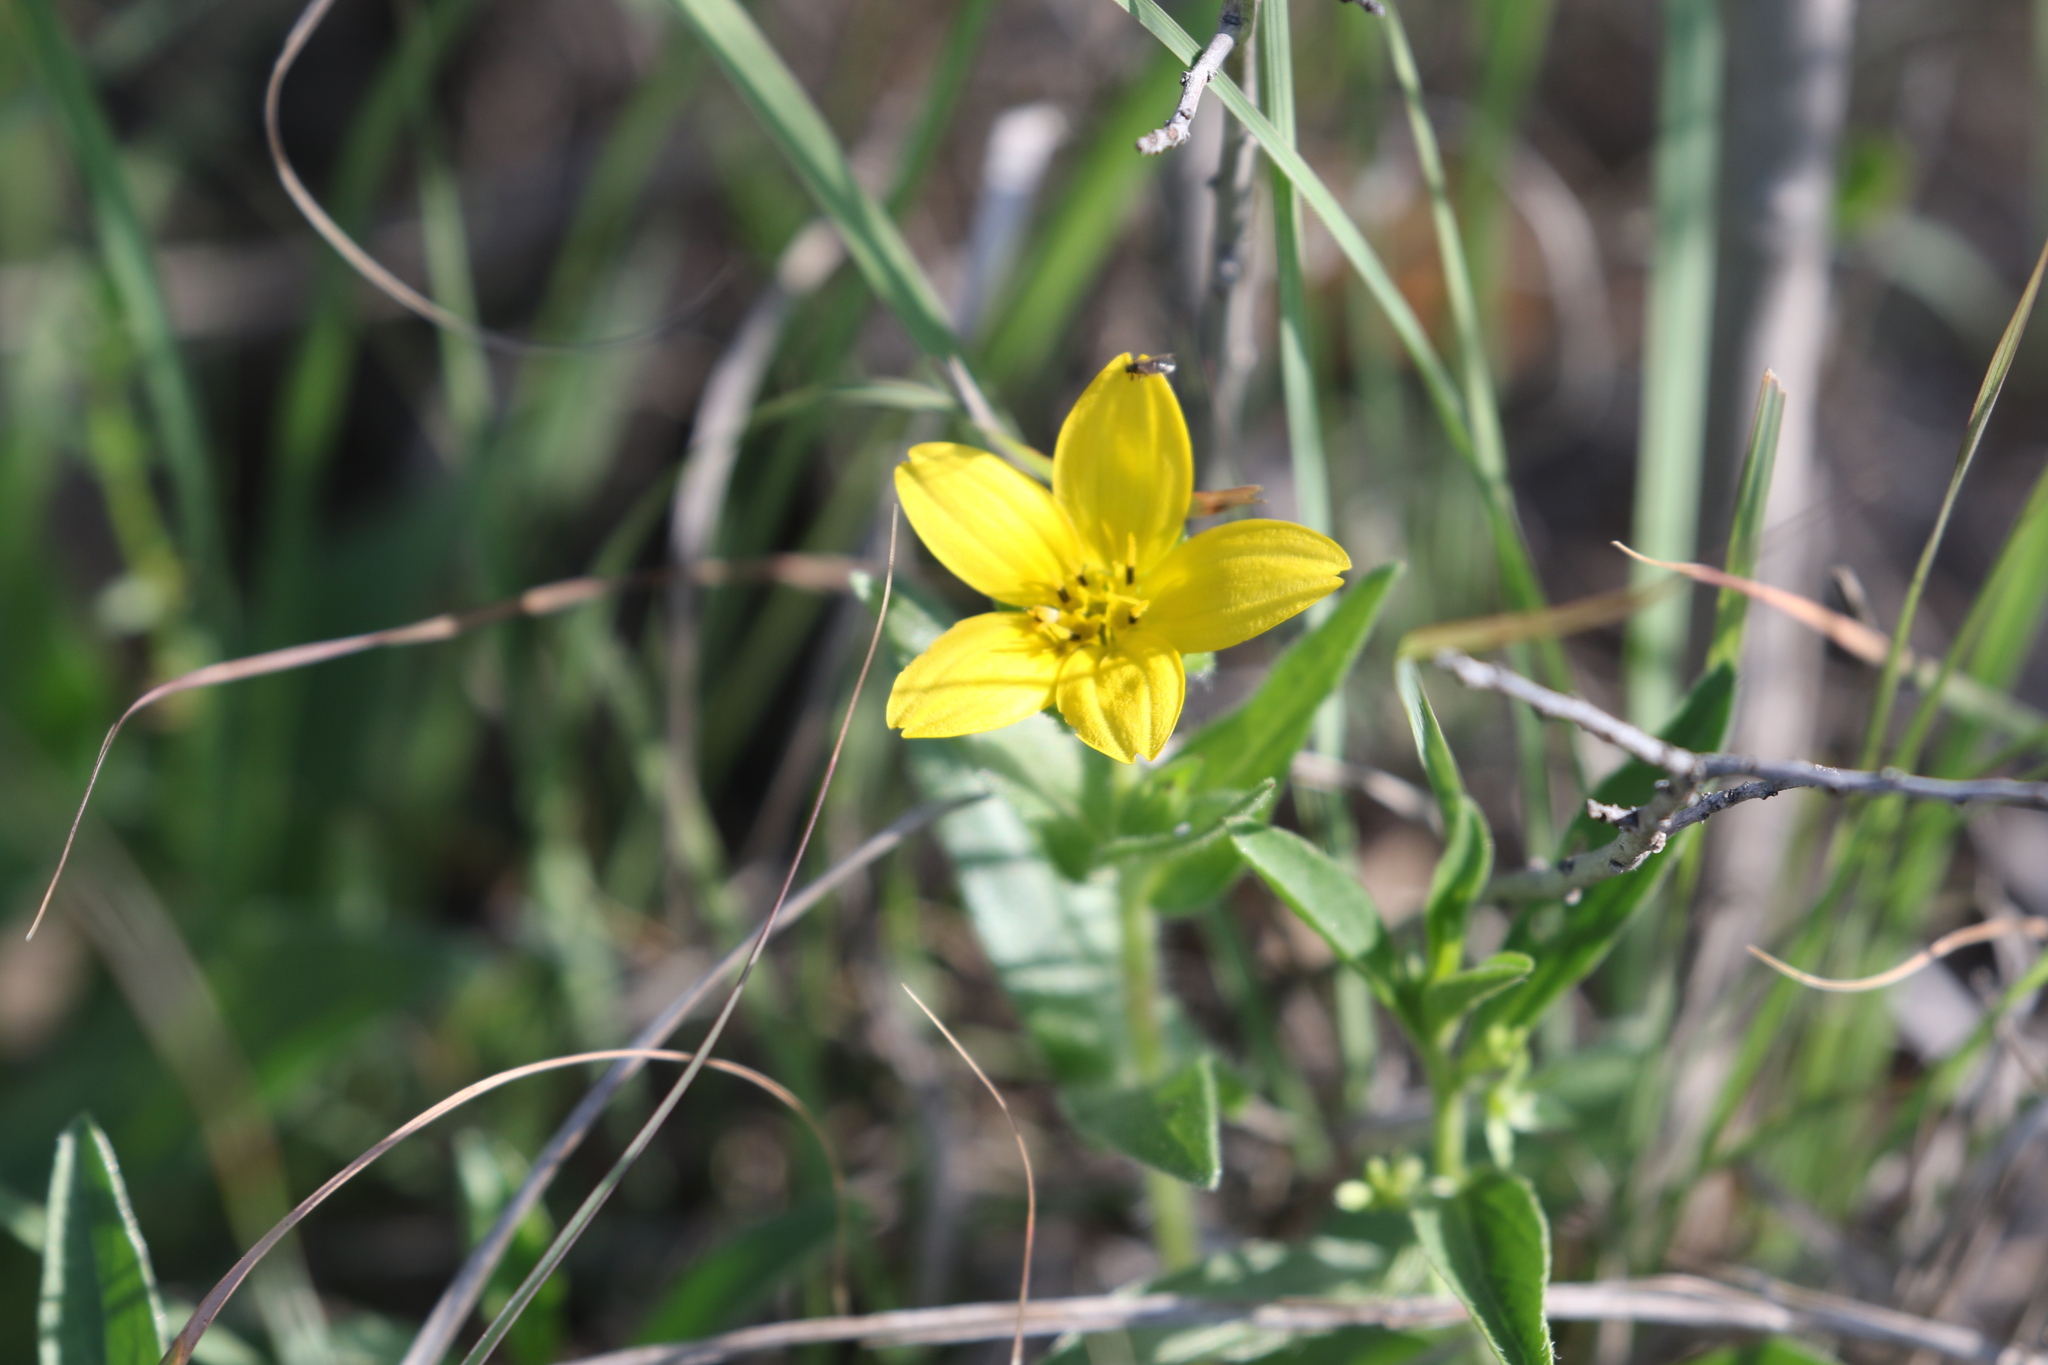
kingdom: Plantae
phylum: Tracheophyta
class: Magnoliopsida
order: Asterales
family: Asteraceae
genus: Lindheimera
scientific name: Lindheimera texana
